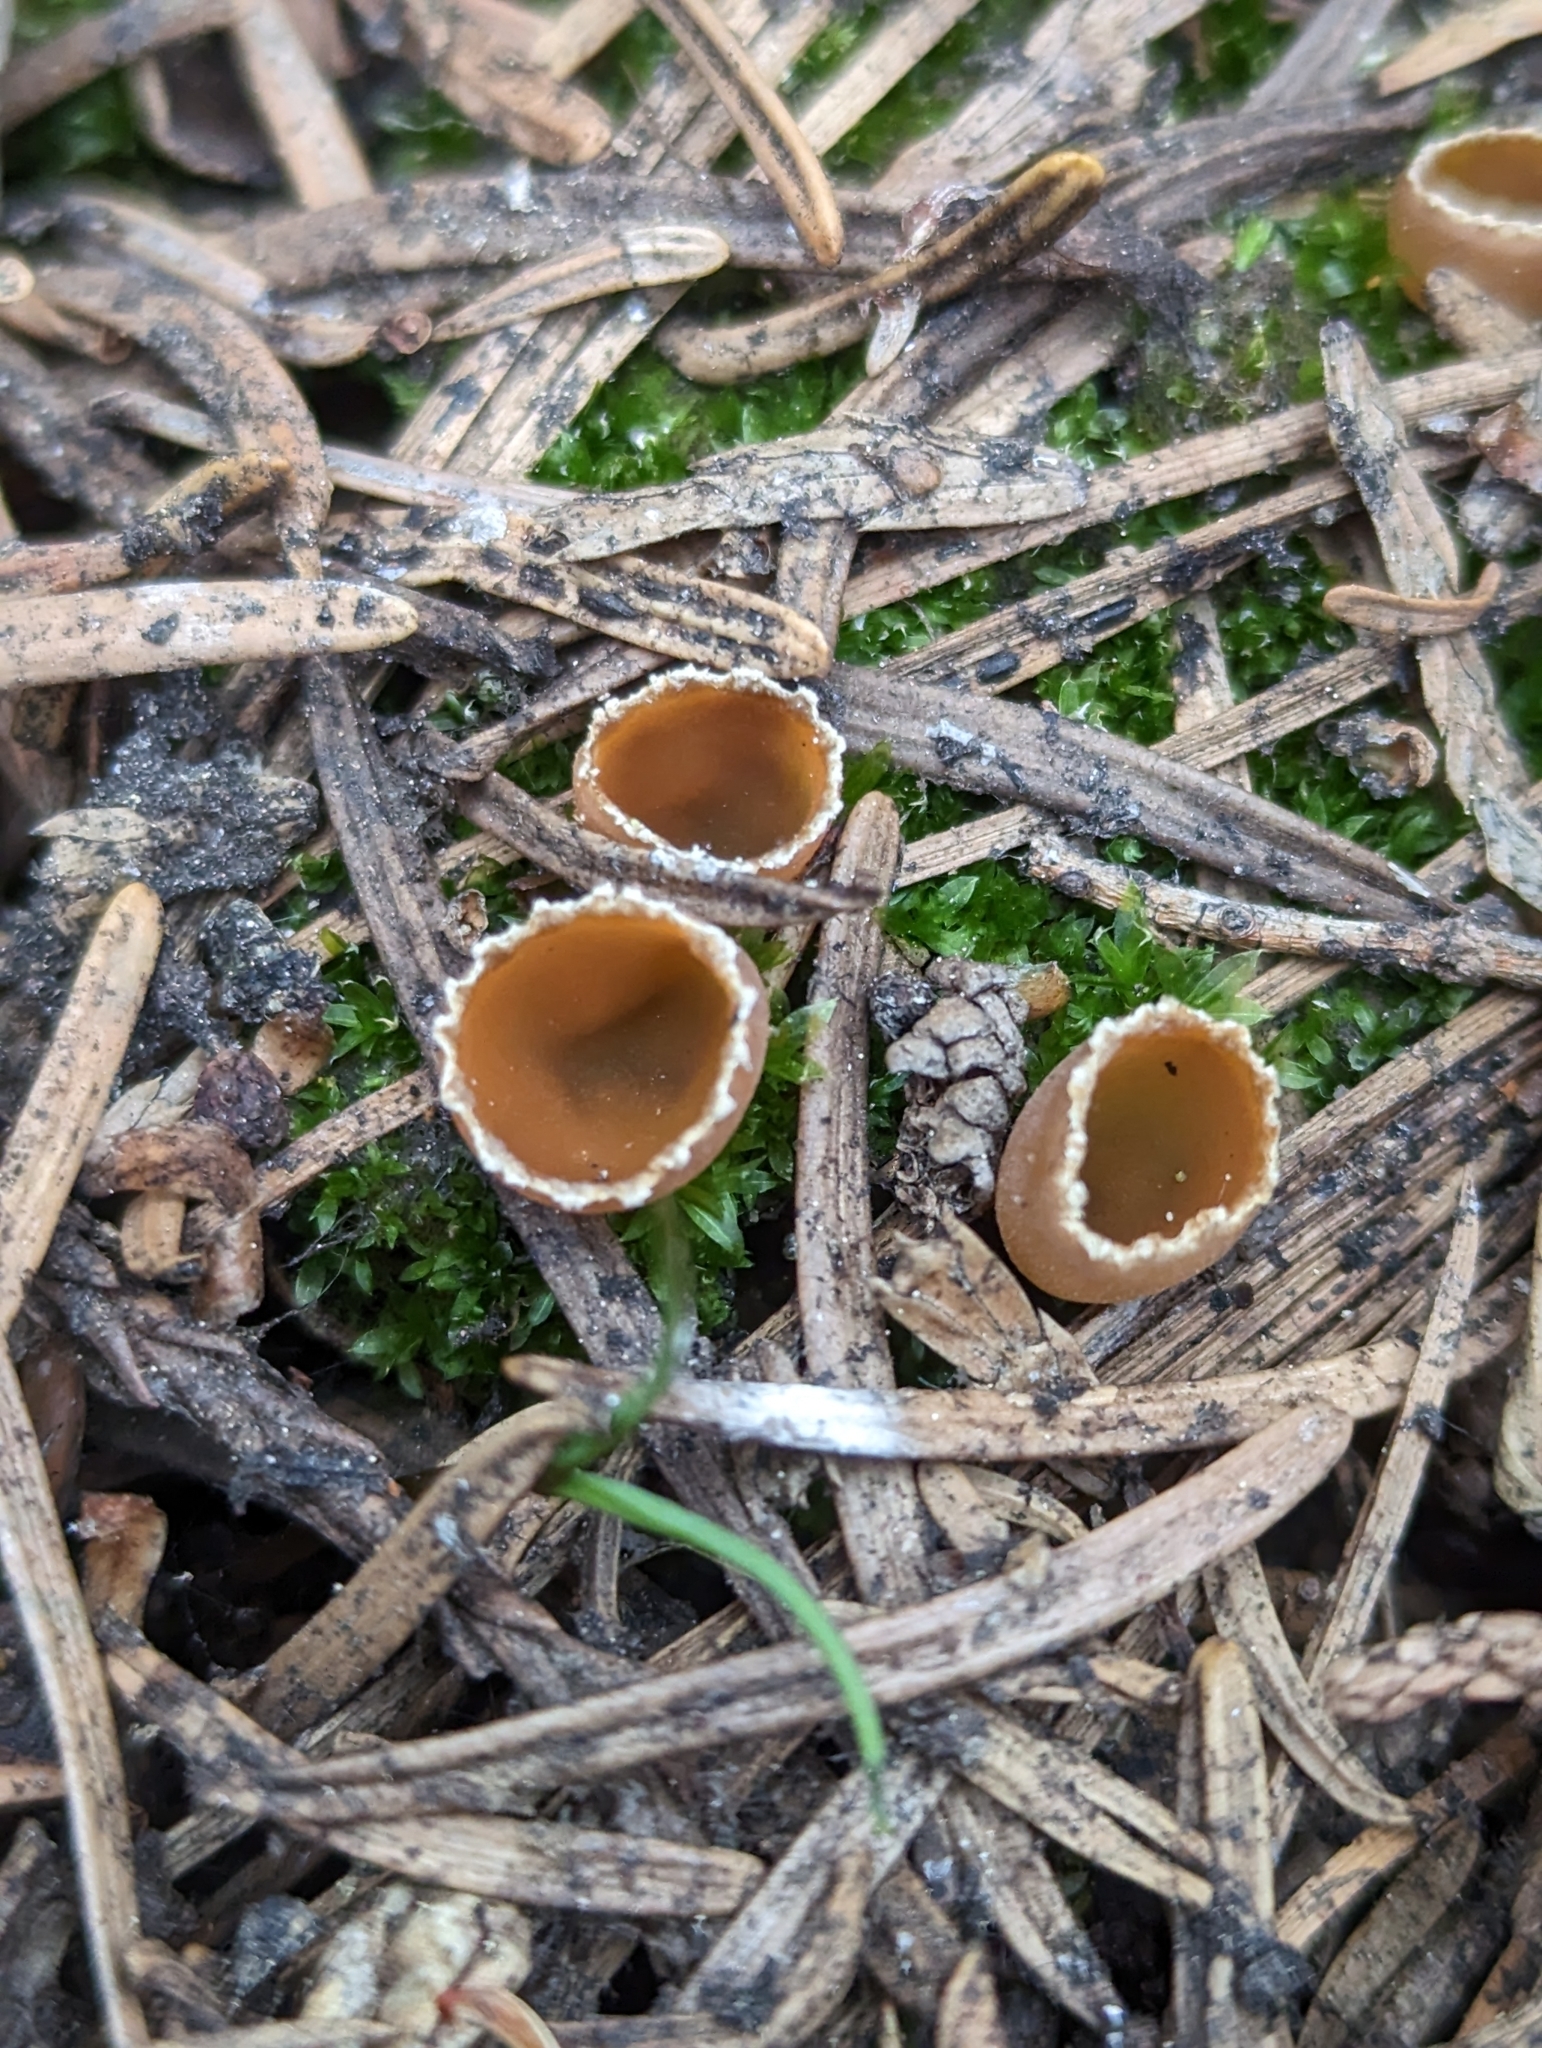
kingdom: Fungi
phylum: Ascomycota
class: Pezizomycetes
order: Pezizales
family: Pyronemataceae
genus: Geopyxis
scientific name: Geopyxis carbonaria
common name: Stalked bonfire cup
